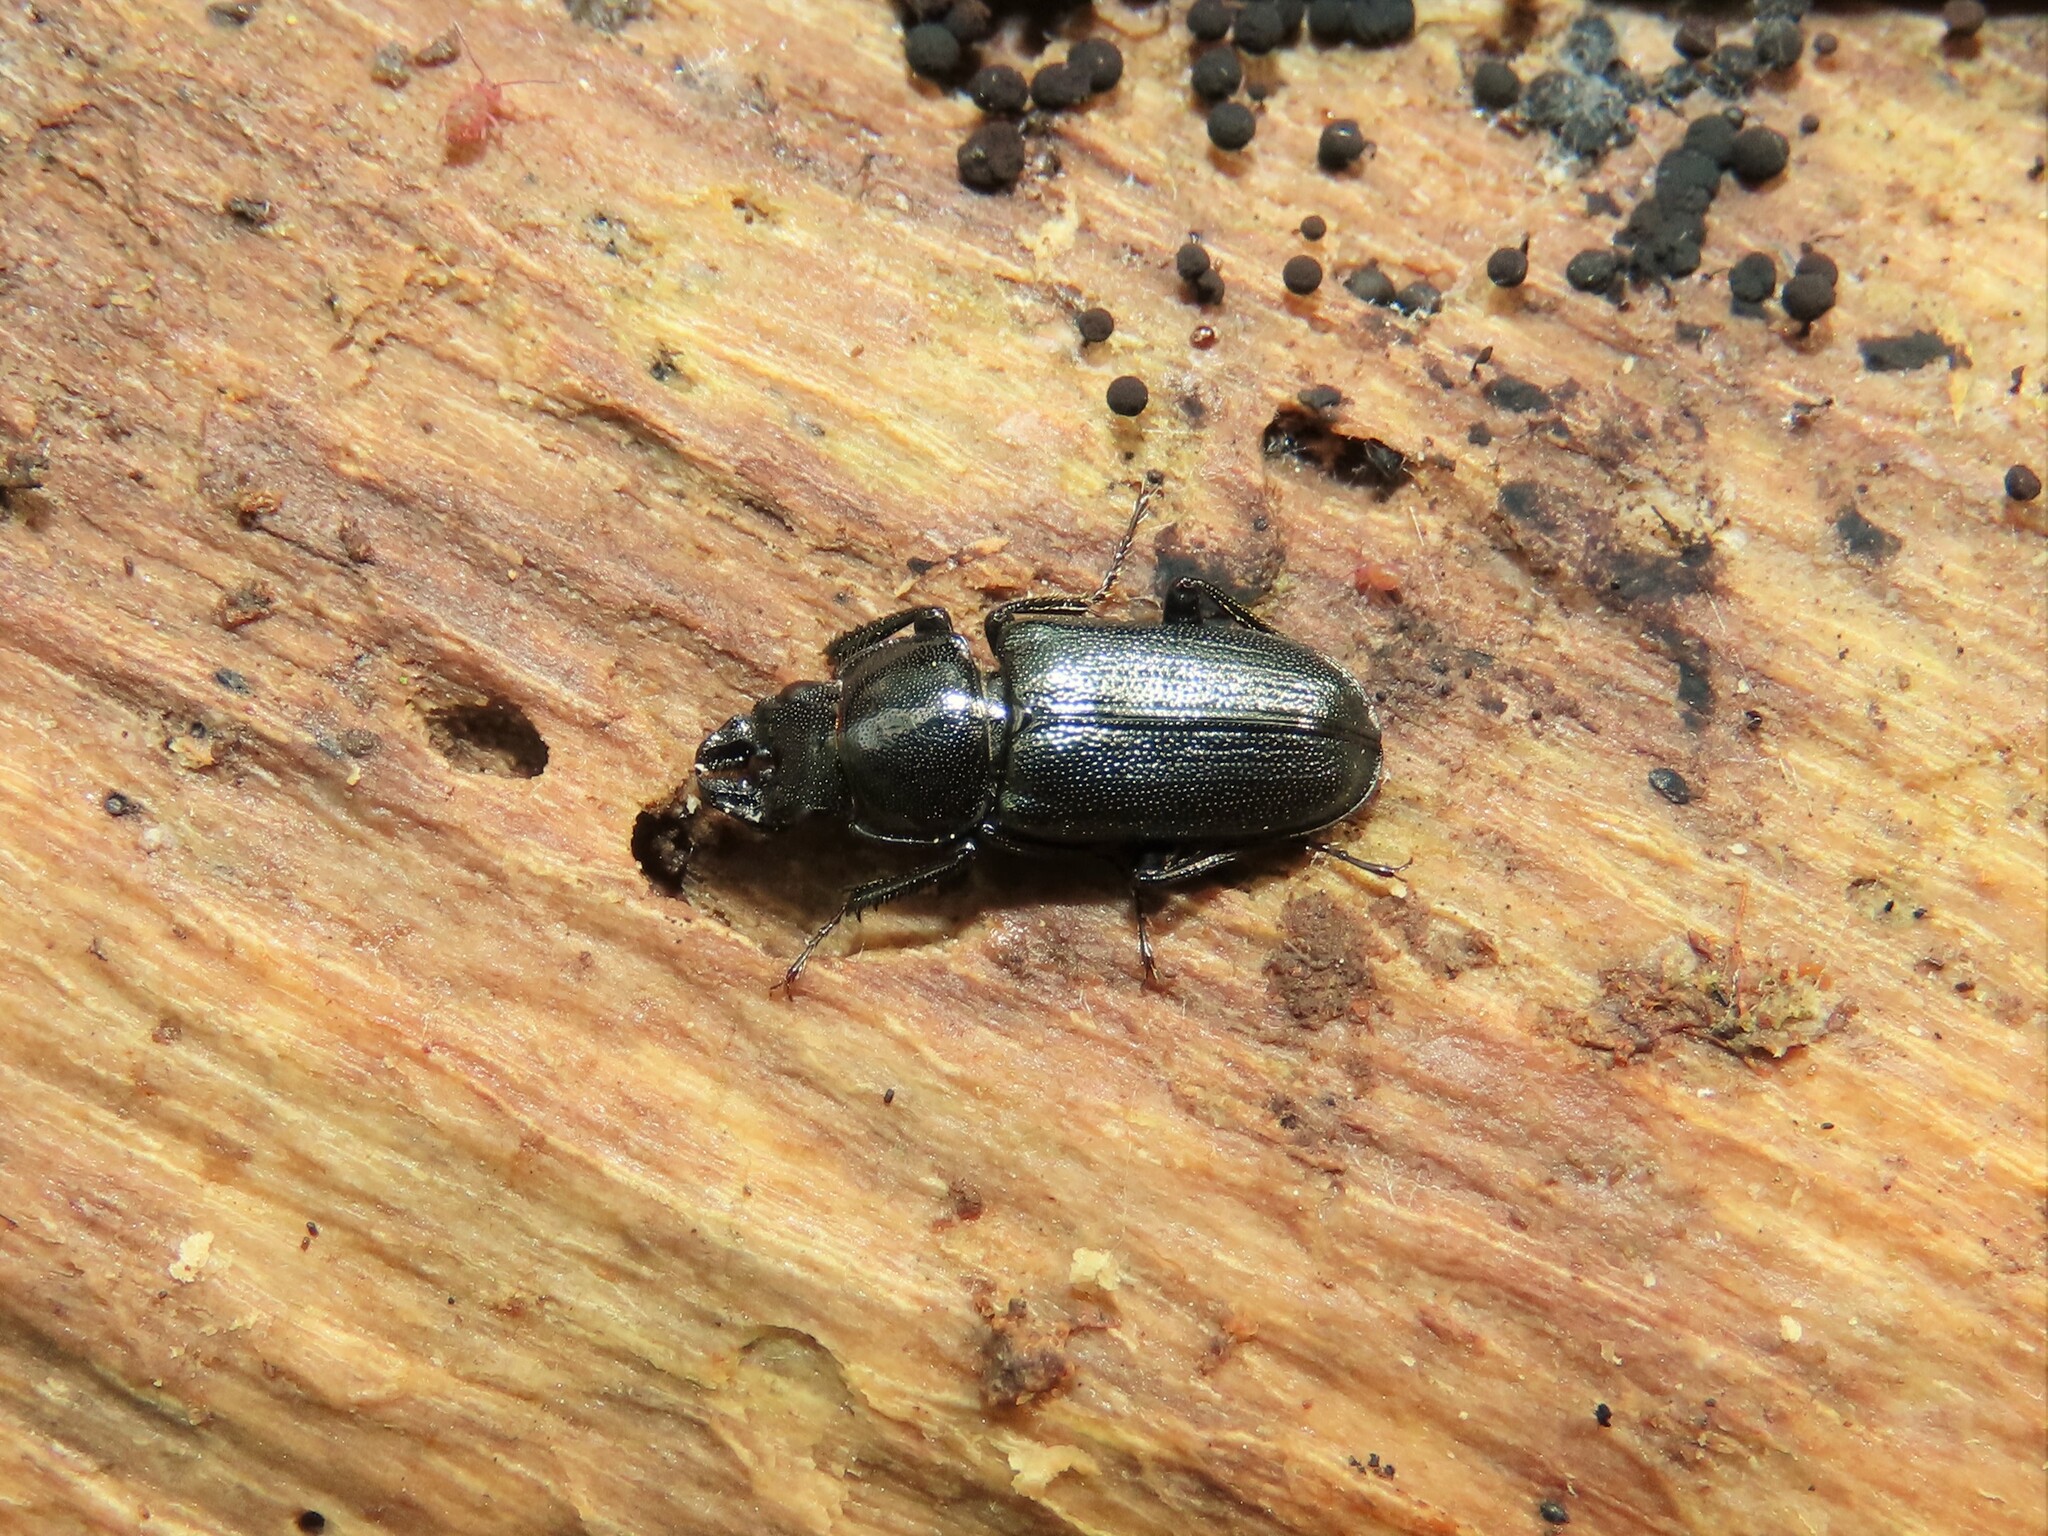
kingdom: Animalia
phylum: Arthropoda
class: Insecta
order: Coleoptera
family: Lucanidae
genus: Platycerus
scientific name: Platycerus quercus
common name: Oak stag beetle
